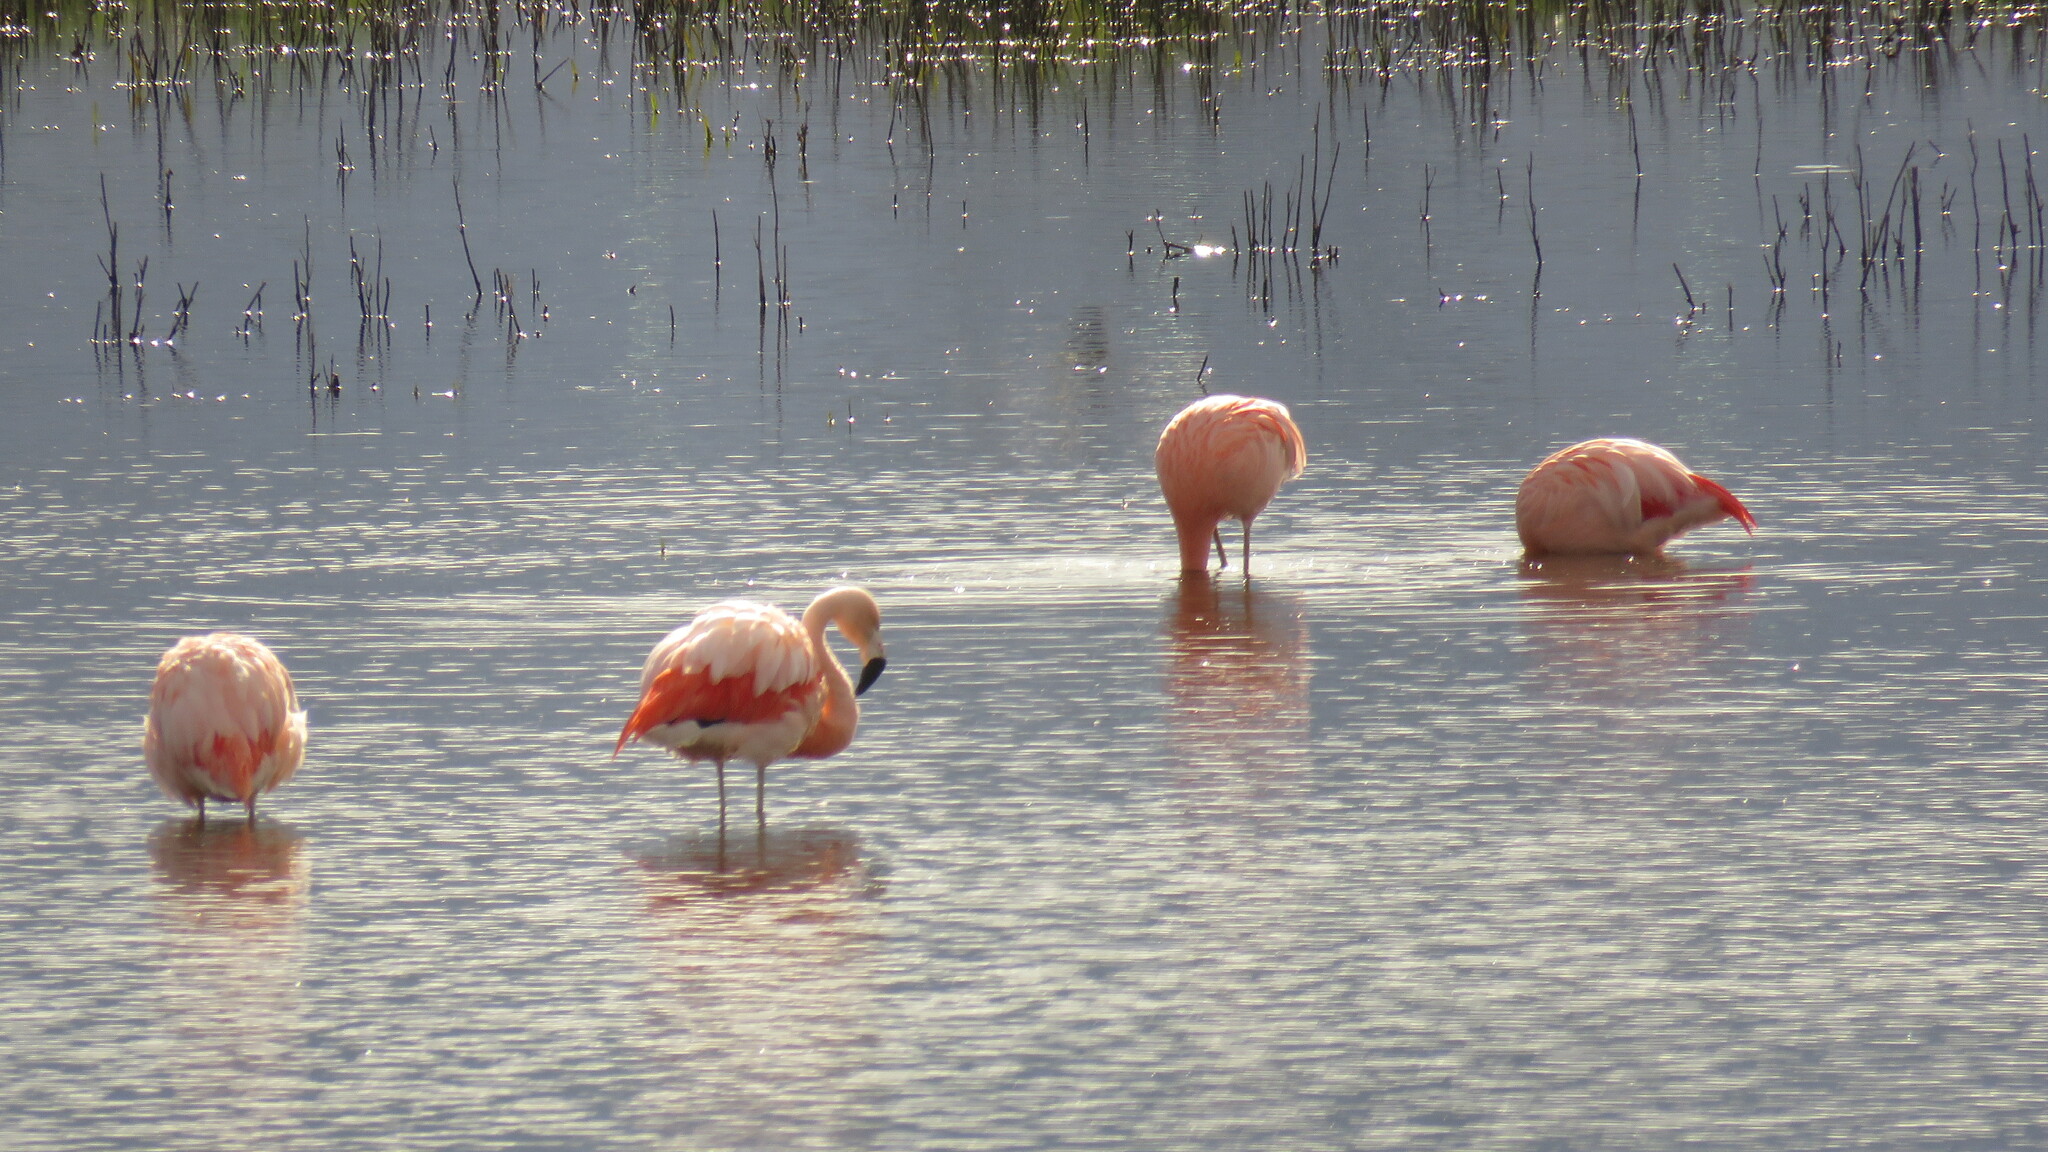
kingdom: Animalia
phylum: Chordata
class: Aves
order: Phoenicopteriformes
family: Phoenicopteridae
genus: Phoenicopterus
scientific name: Phoenicopterus chilensis
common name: Chilean flamingo
